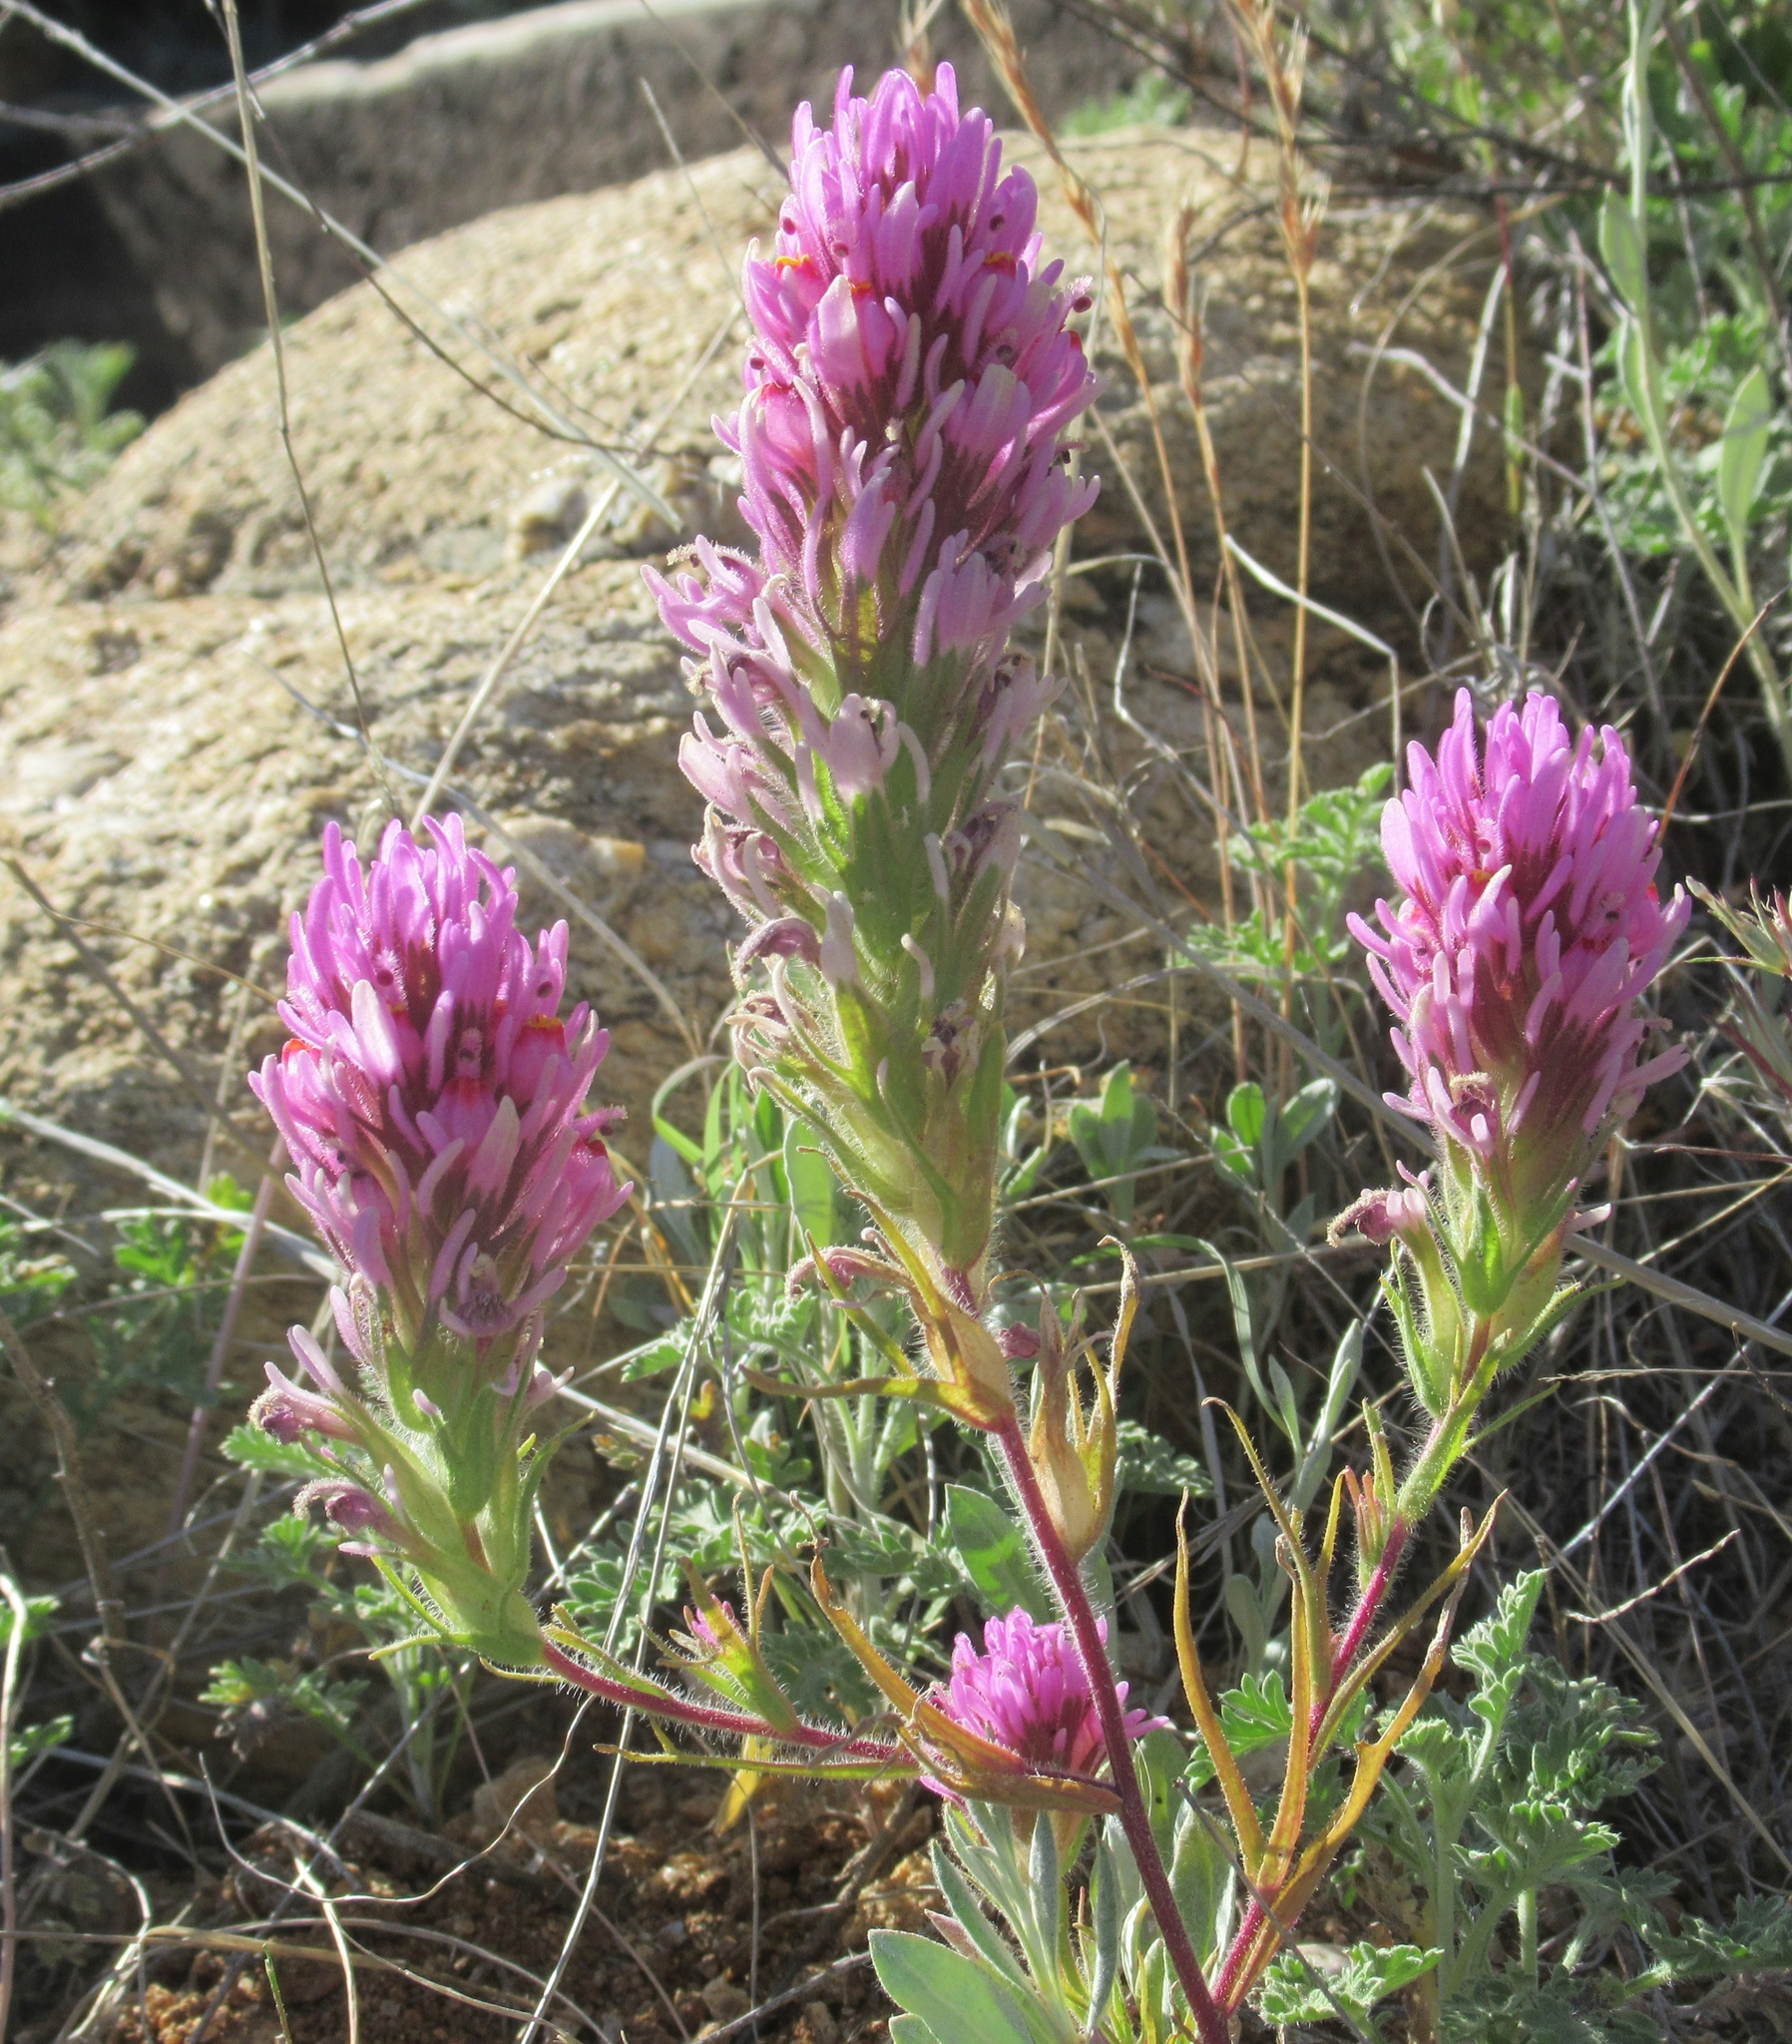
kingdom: Plantae
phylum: Tracheophyta
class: Magnoliopsida
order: Lamiales
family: Orobanchaceae
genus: Castilleja
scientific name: Castilleja exserta
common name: Purple owl-clover
